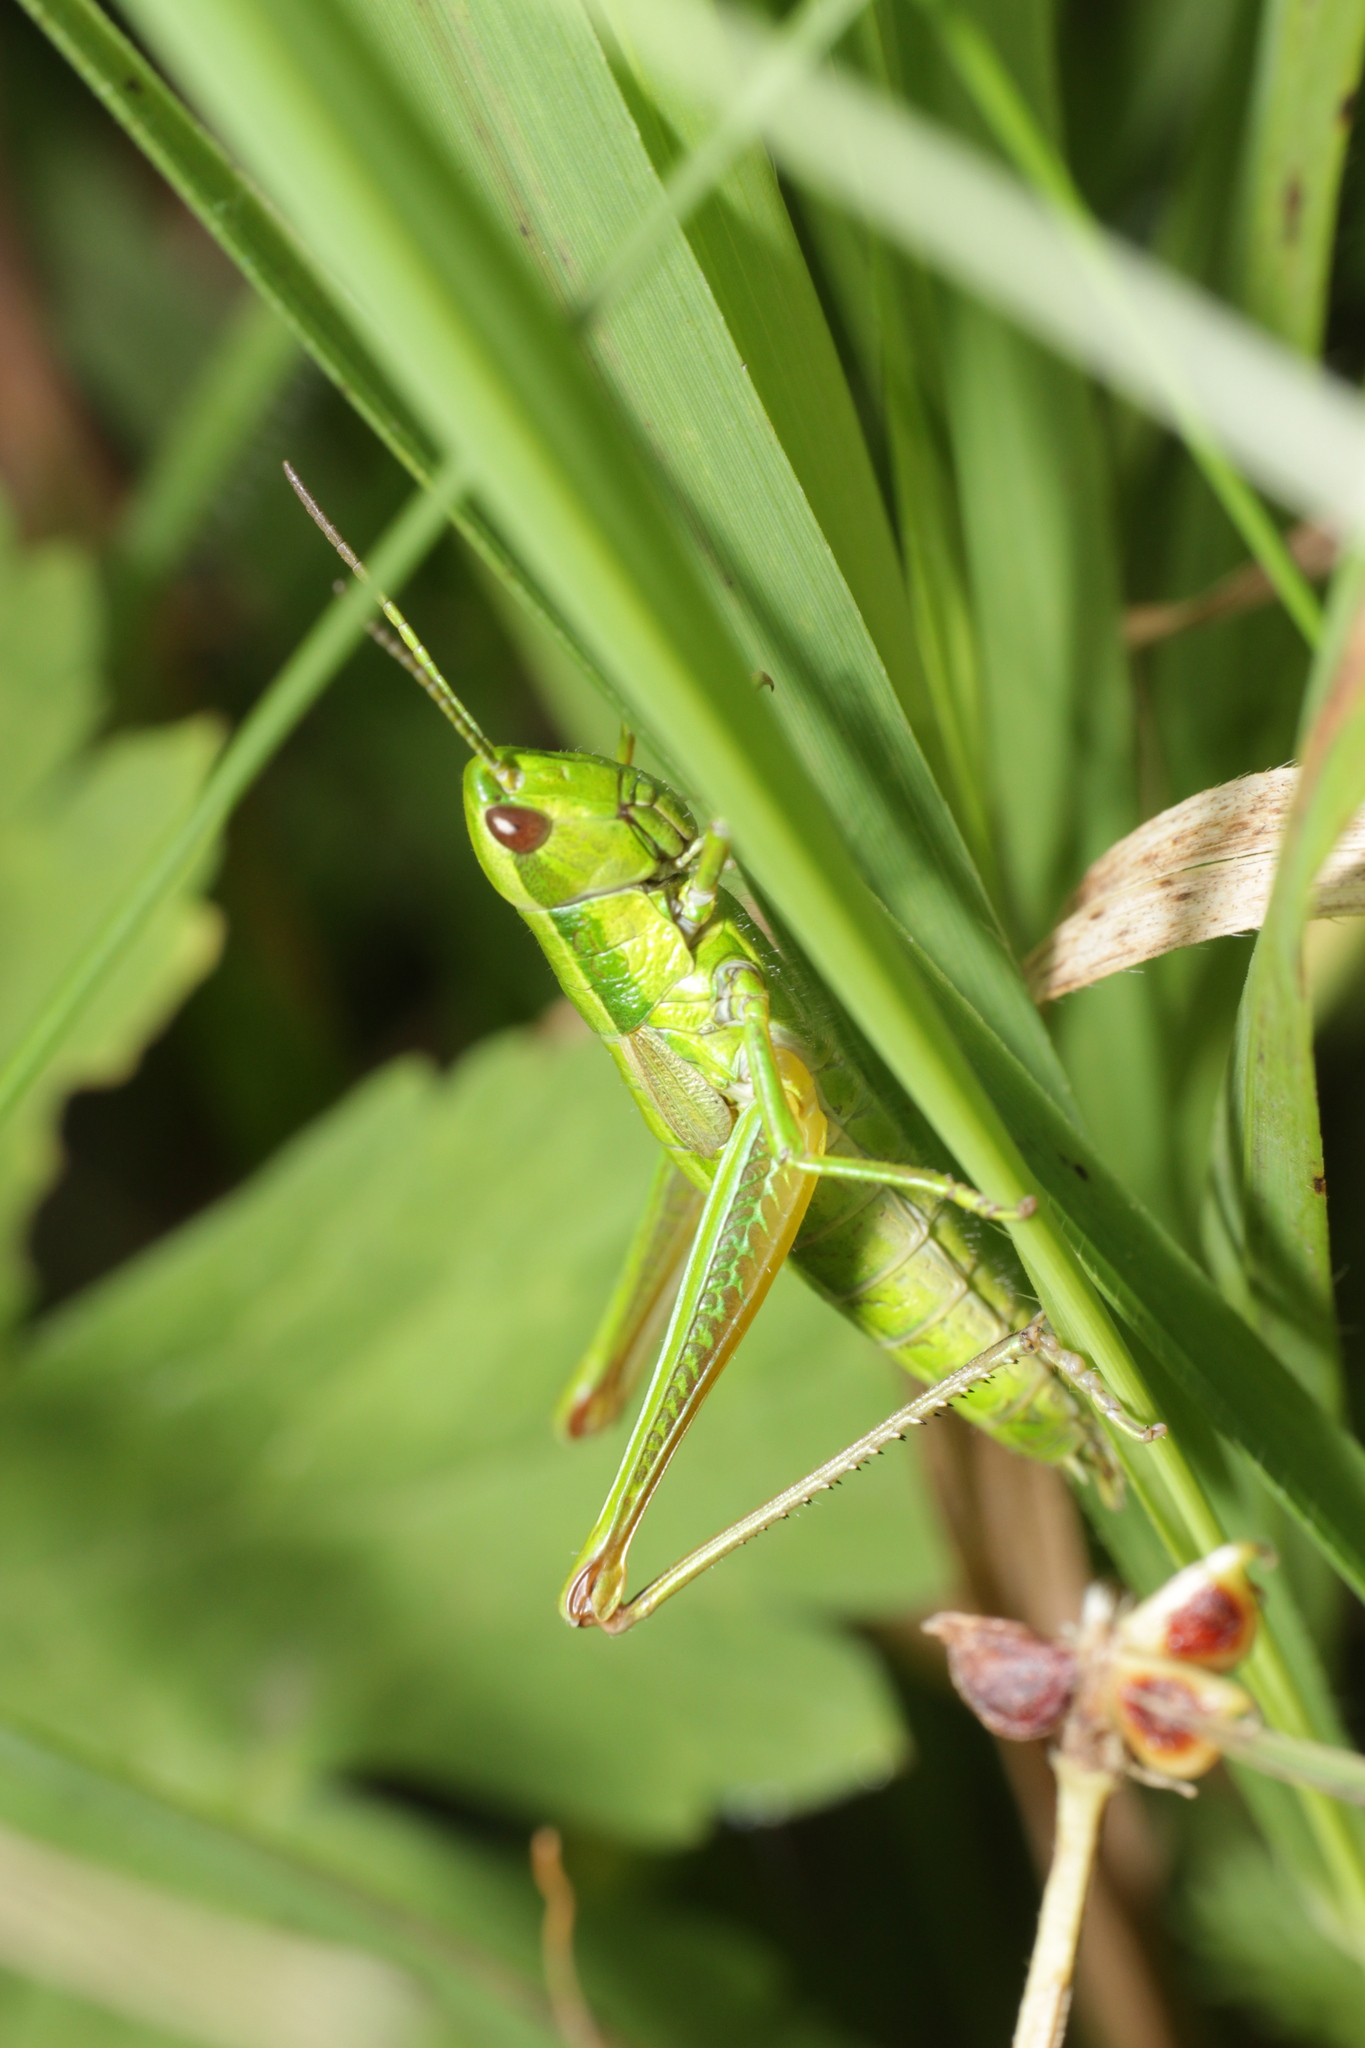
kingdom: Animalia
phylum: Arthropoda
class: Insecta
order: Orthoptera
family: Acrididae
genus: Euthystira
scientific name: Euthystira brachyptera
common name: Small gold grasshopper
